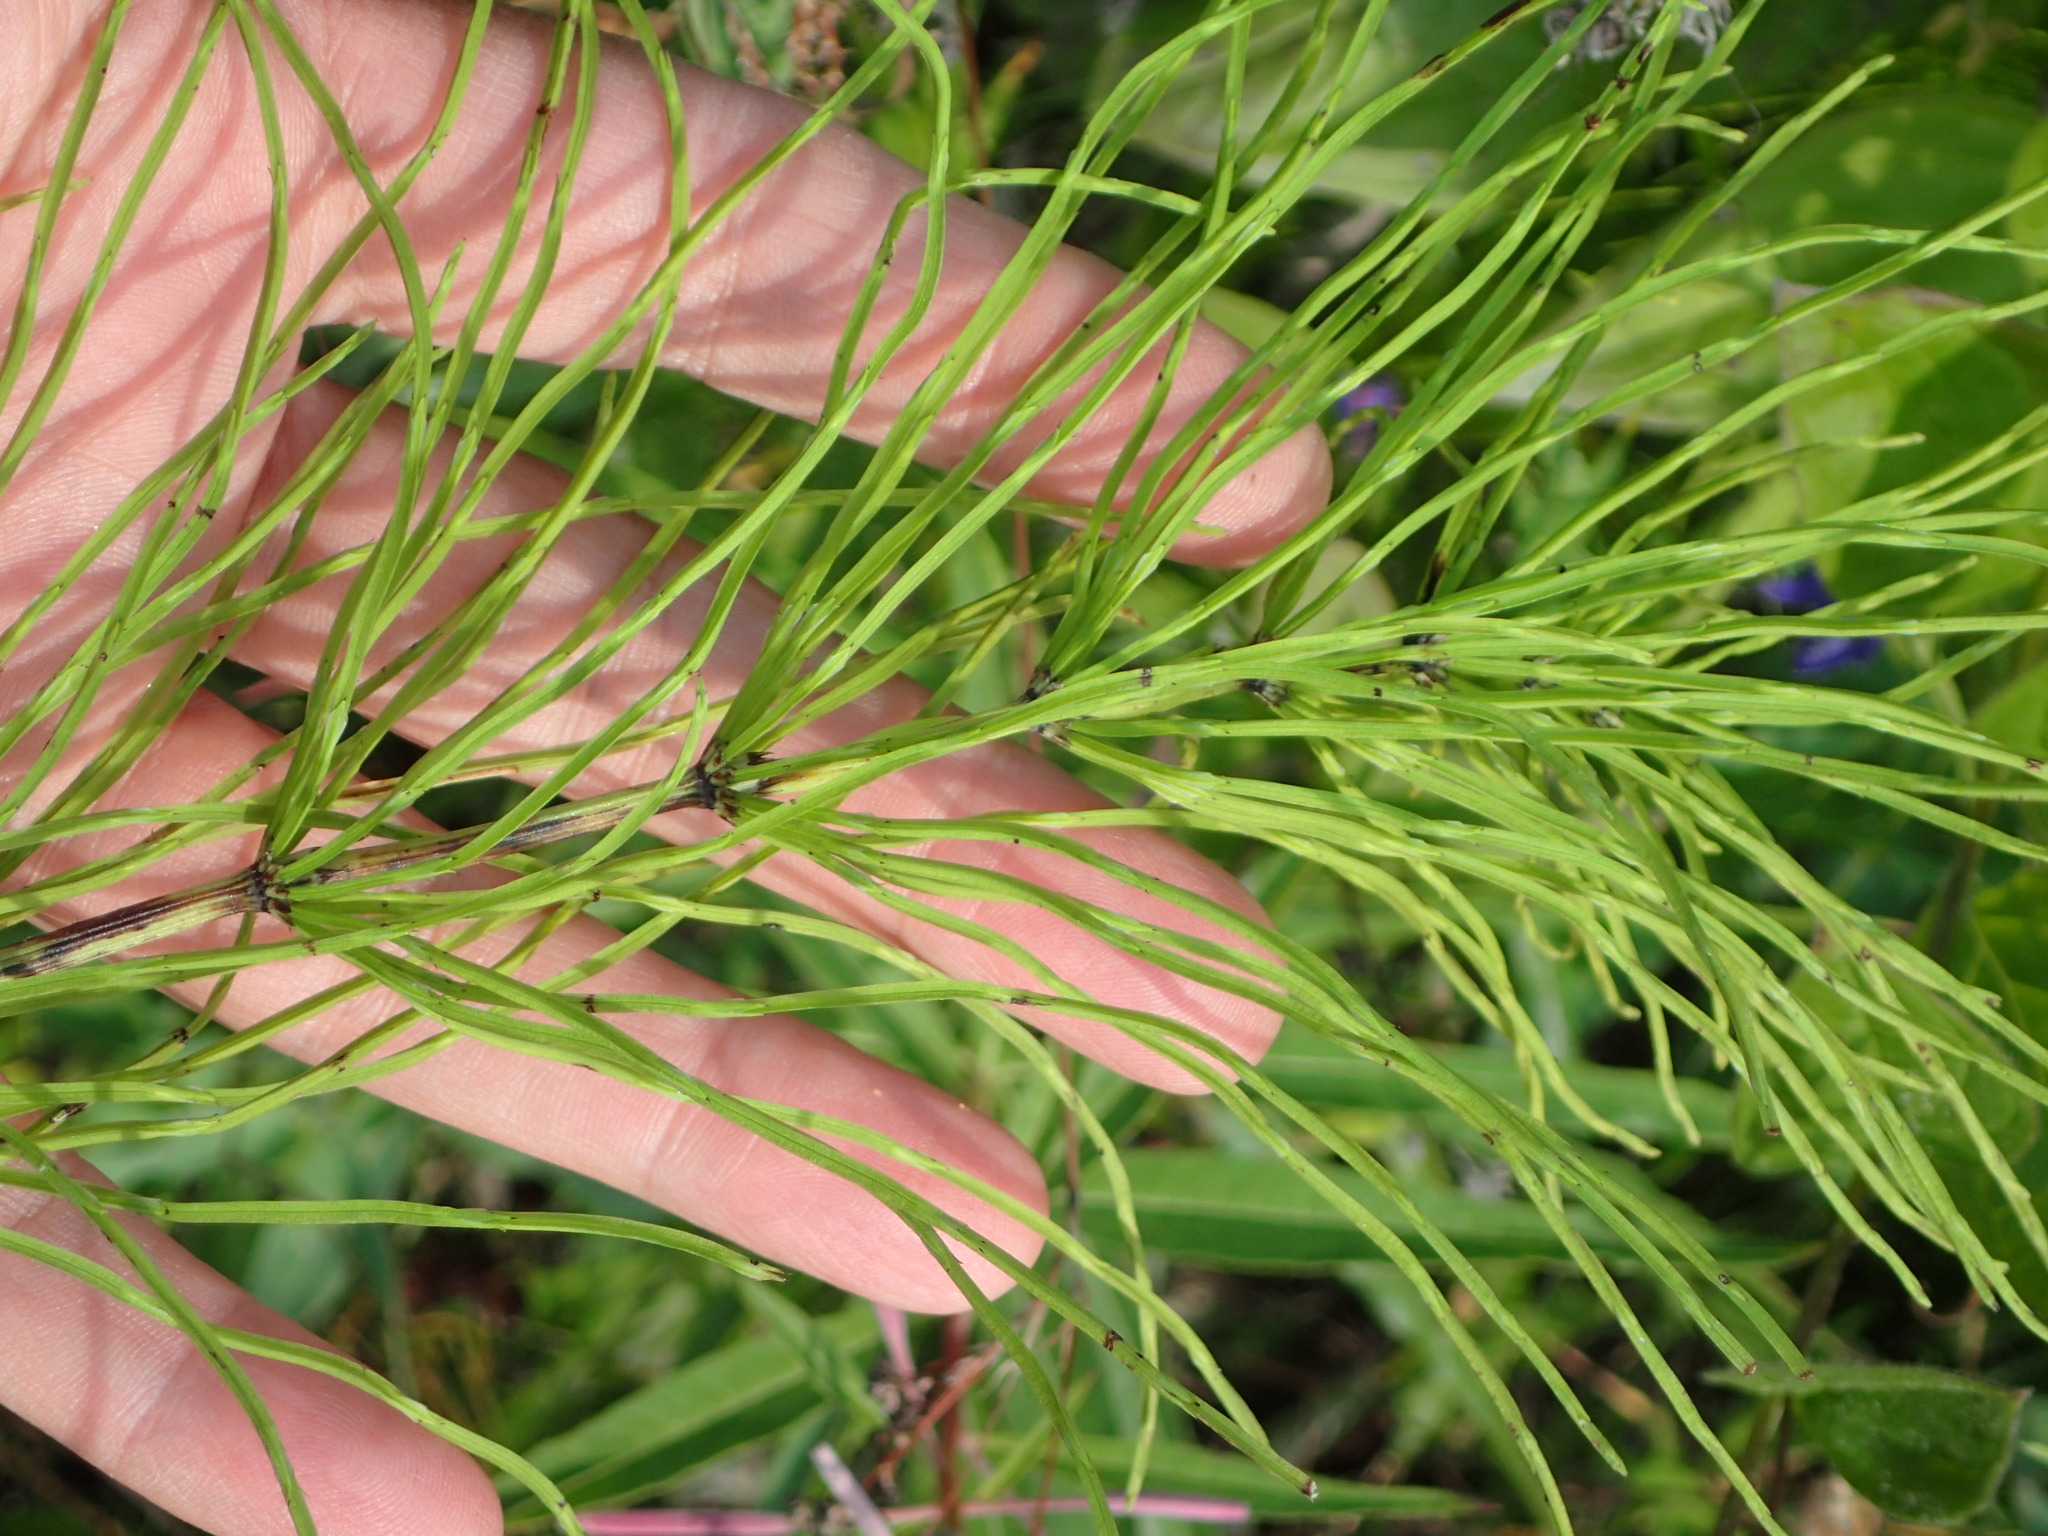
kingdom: Plantae
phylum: Tracheophyta
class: Polypodiopsida
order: Equisetales
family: Equisetaceae
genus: Equisetum
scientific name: Equisetum arvense
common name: Field horsetail
